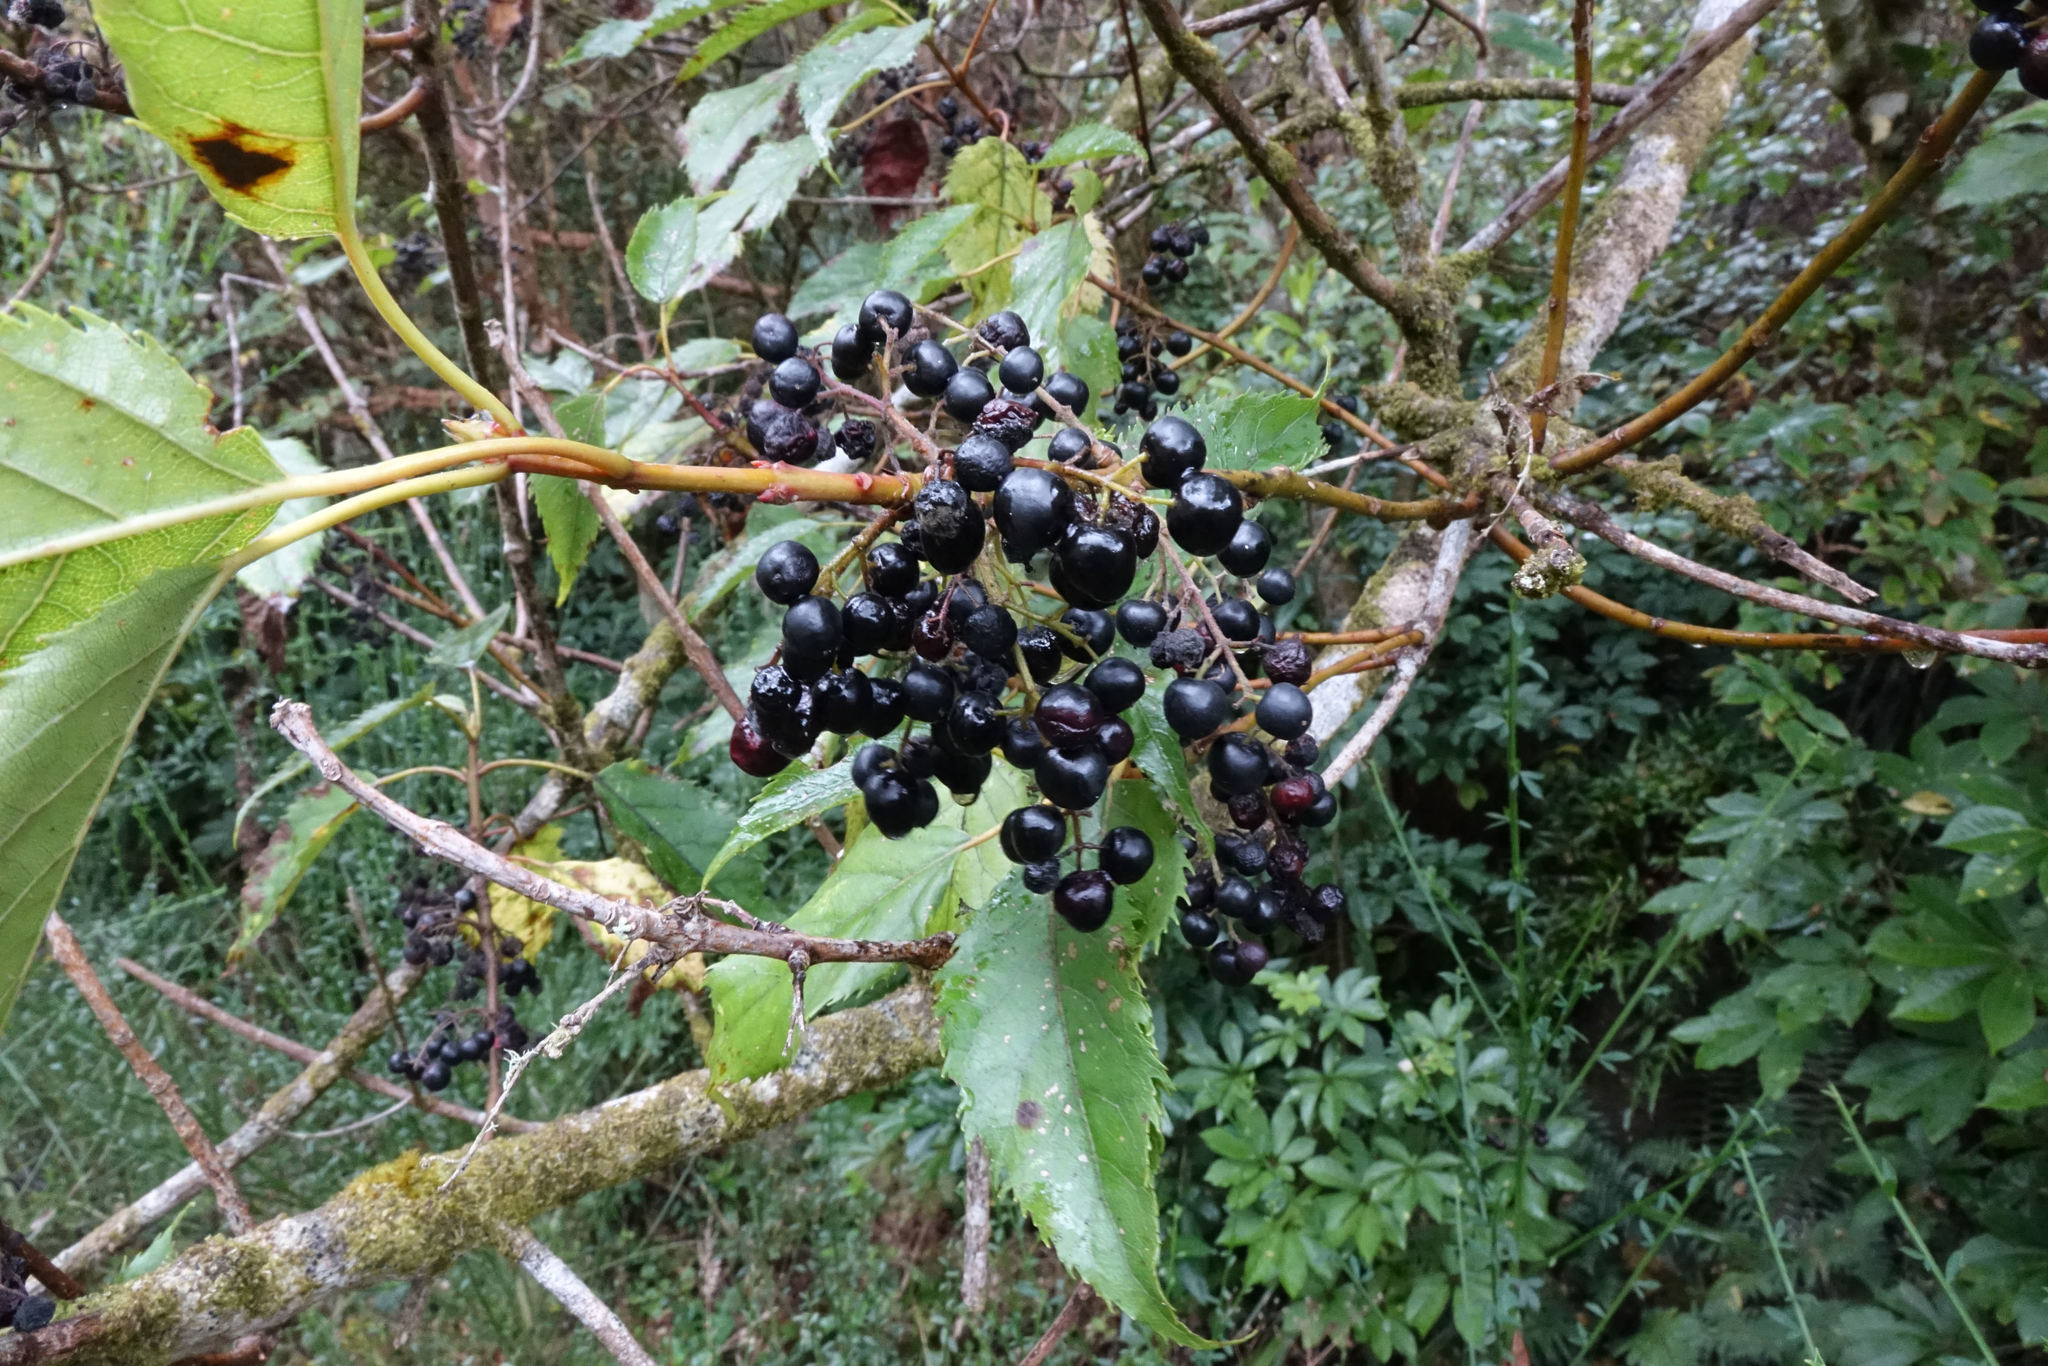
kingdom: Plantae
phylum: Tracheophyta
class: Magnoliopsida
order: Oxalidales
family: Elaeocarpaceae
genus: Aristotelia
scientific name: Aristotelia serrata
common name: New zealand wineberry
